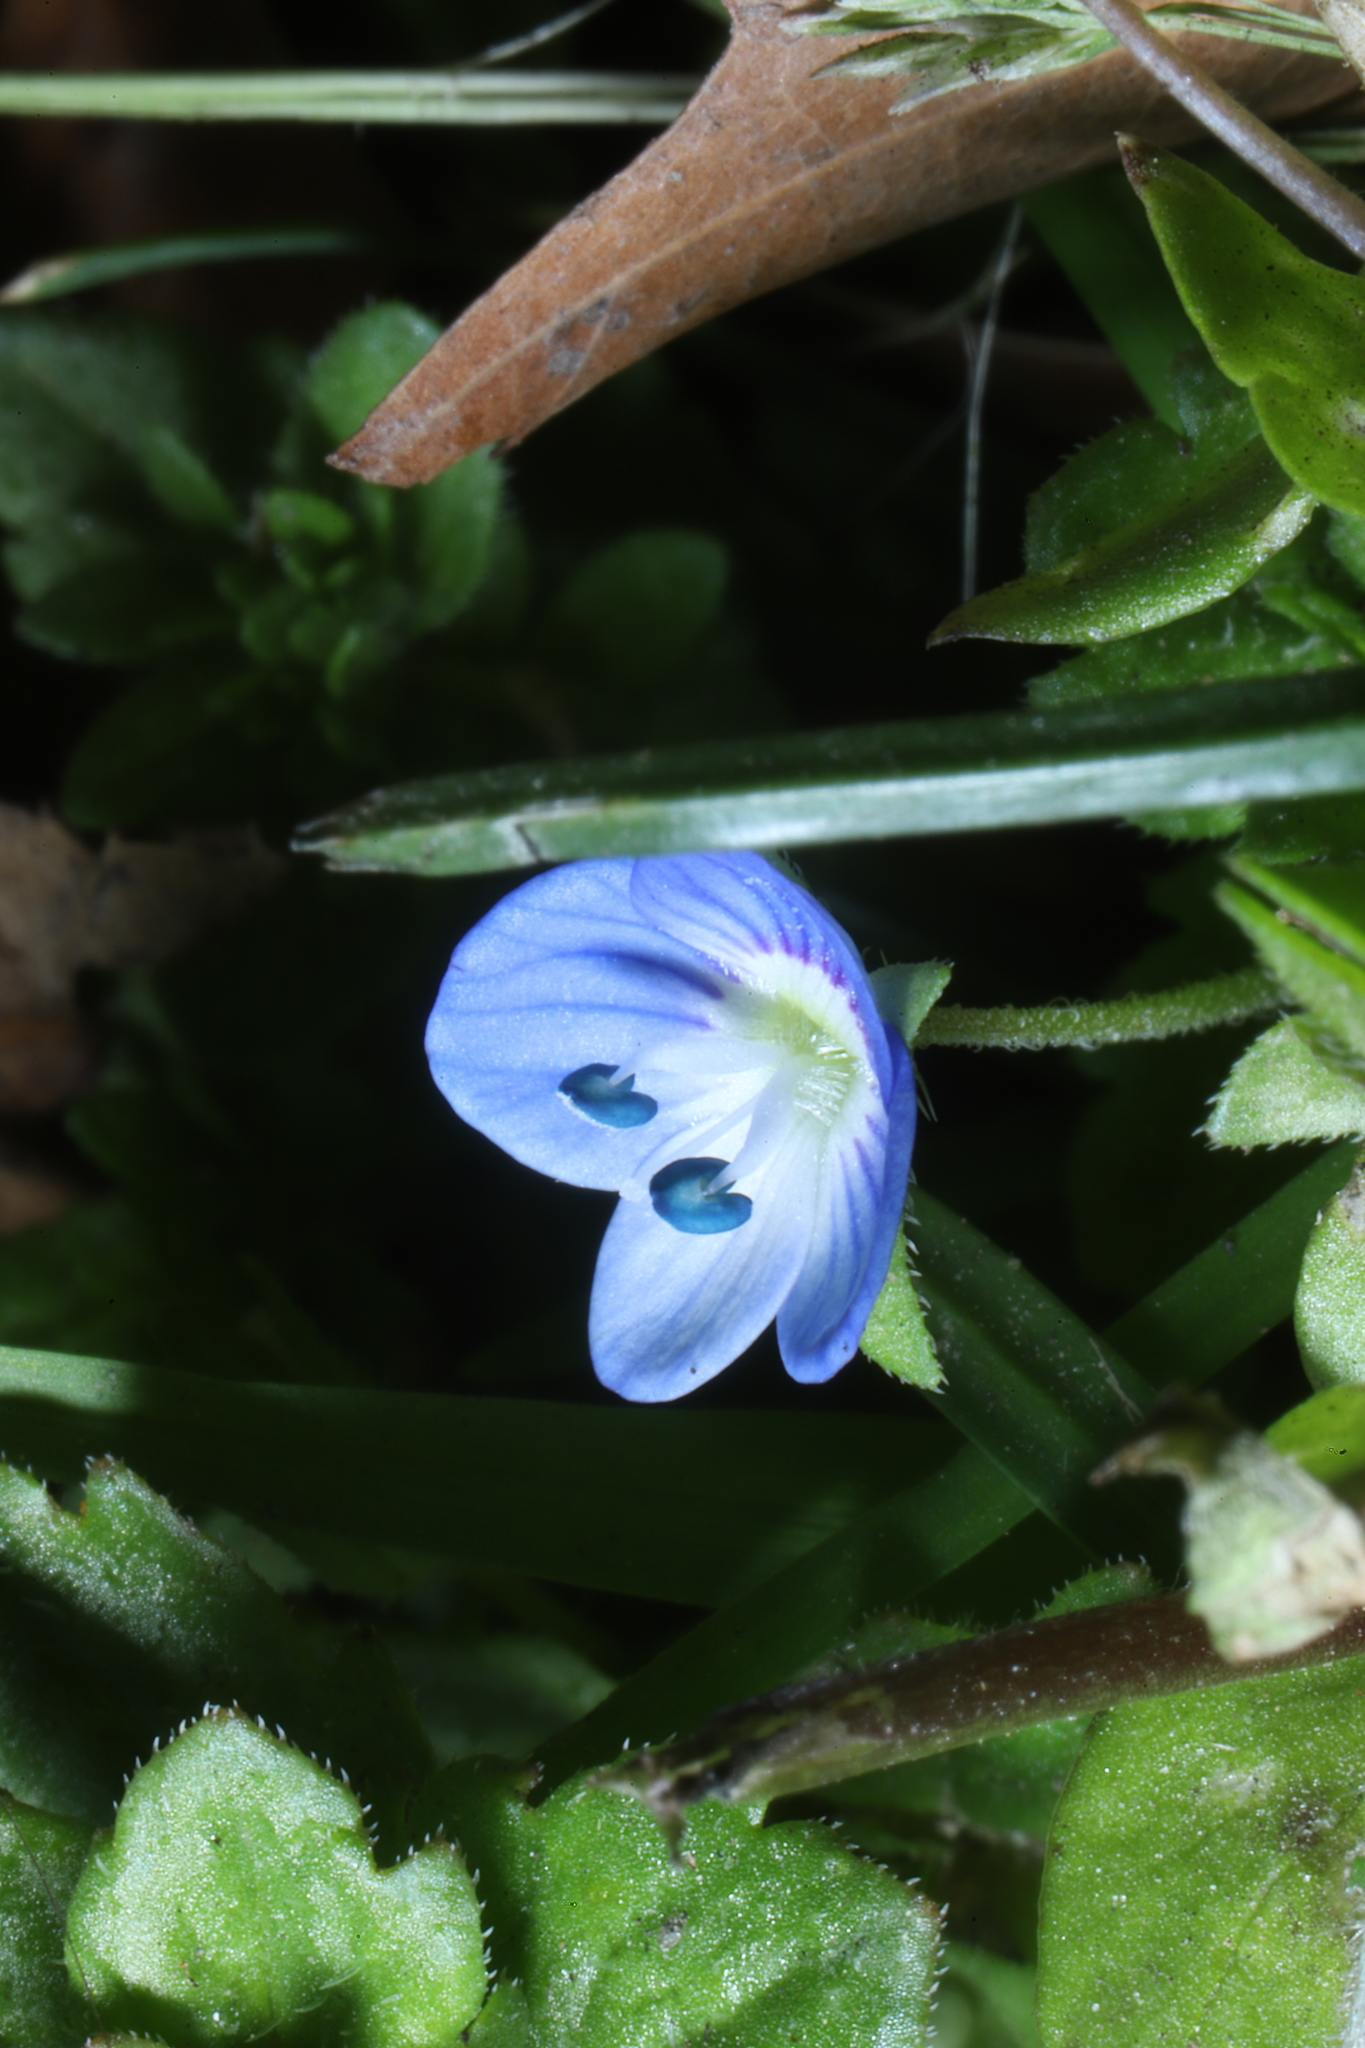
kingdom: Plantae
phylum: Tracheophyta
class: Magnoliopsida
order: Lamiales
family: Plantaginaceae
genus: Veronica
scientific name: Veronica persica
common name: Common field-speedwell
